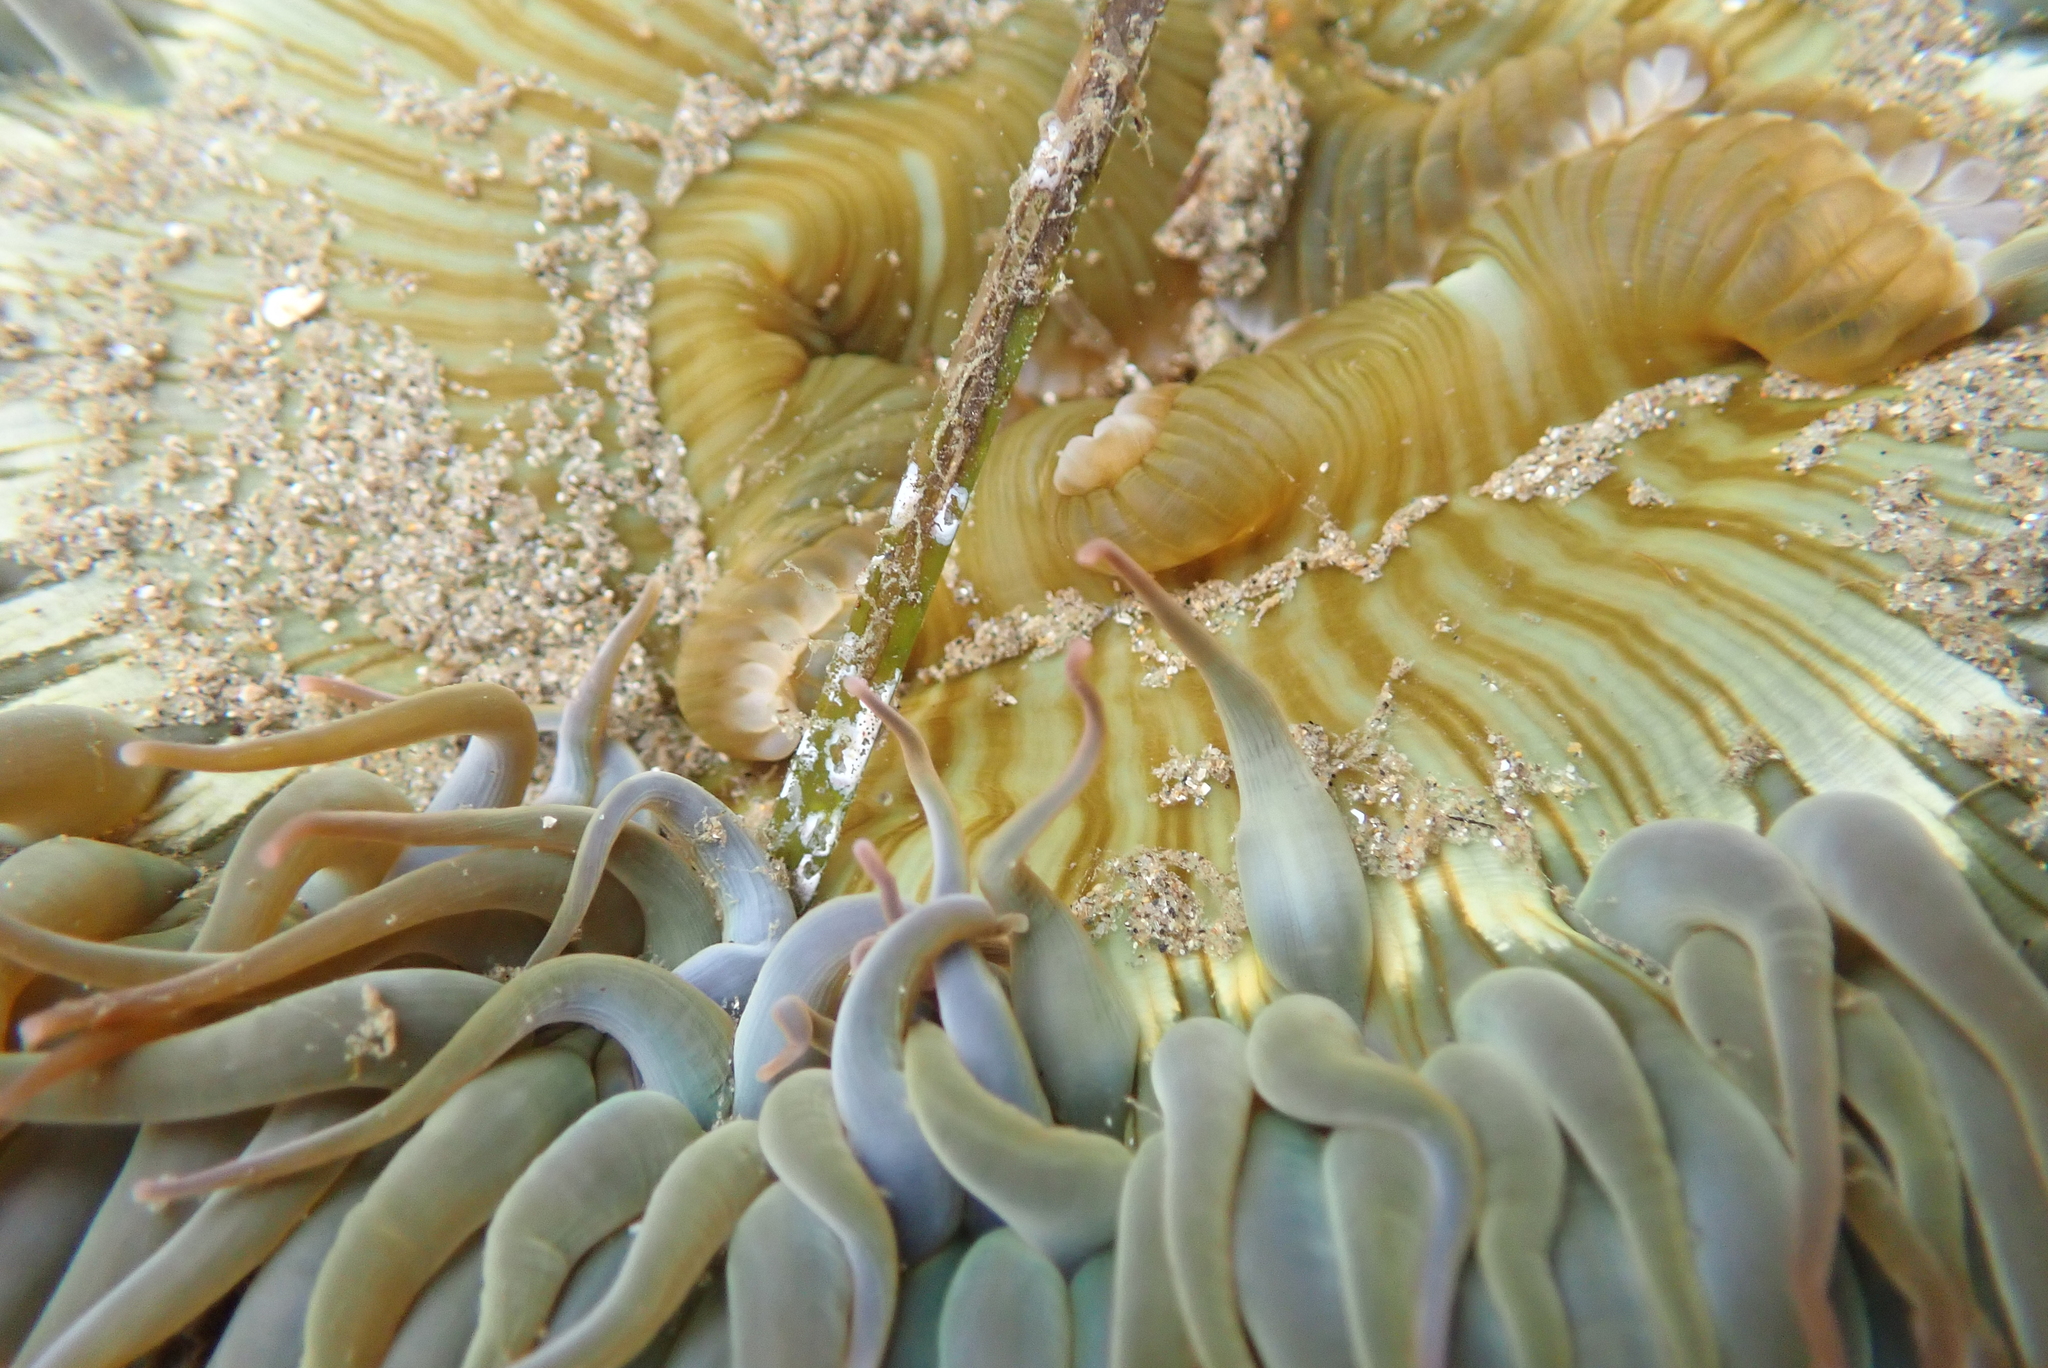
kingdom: Animalia
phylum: Cnidaria
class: Anthozoa
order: Actiniaria
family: Actiniidae
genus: Anthopleura
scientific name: Anthopleura sola
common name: Sun anemone
